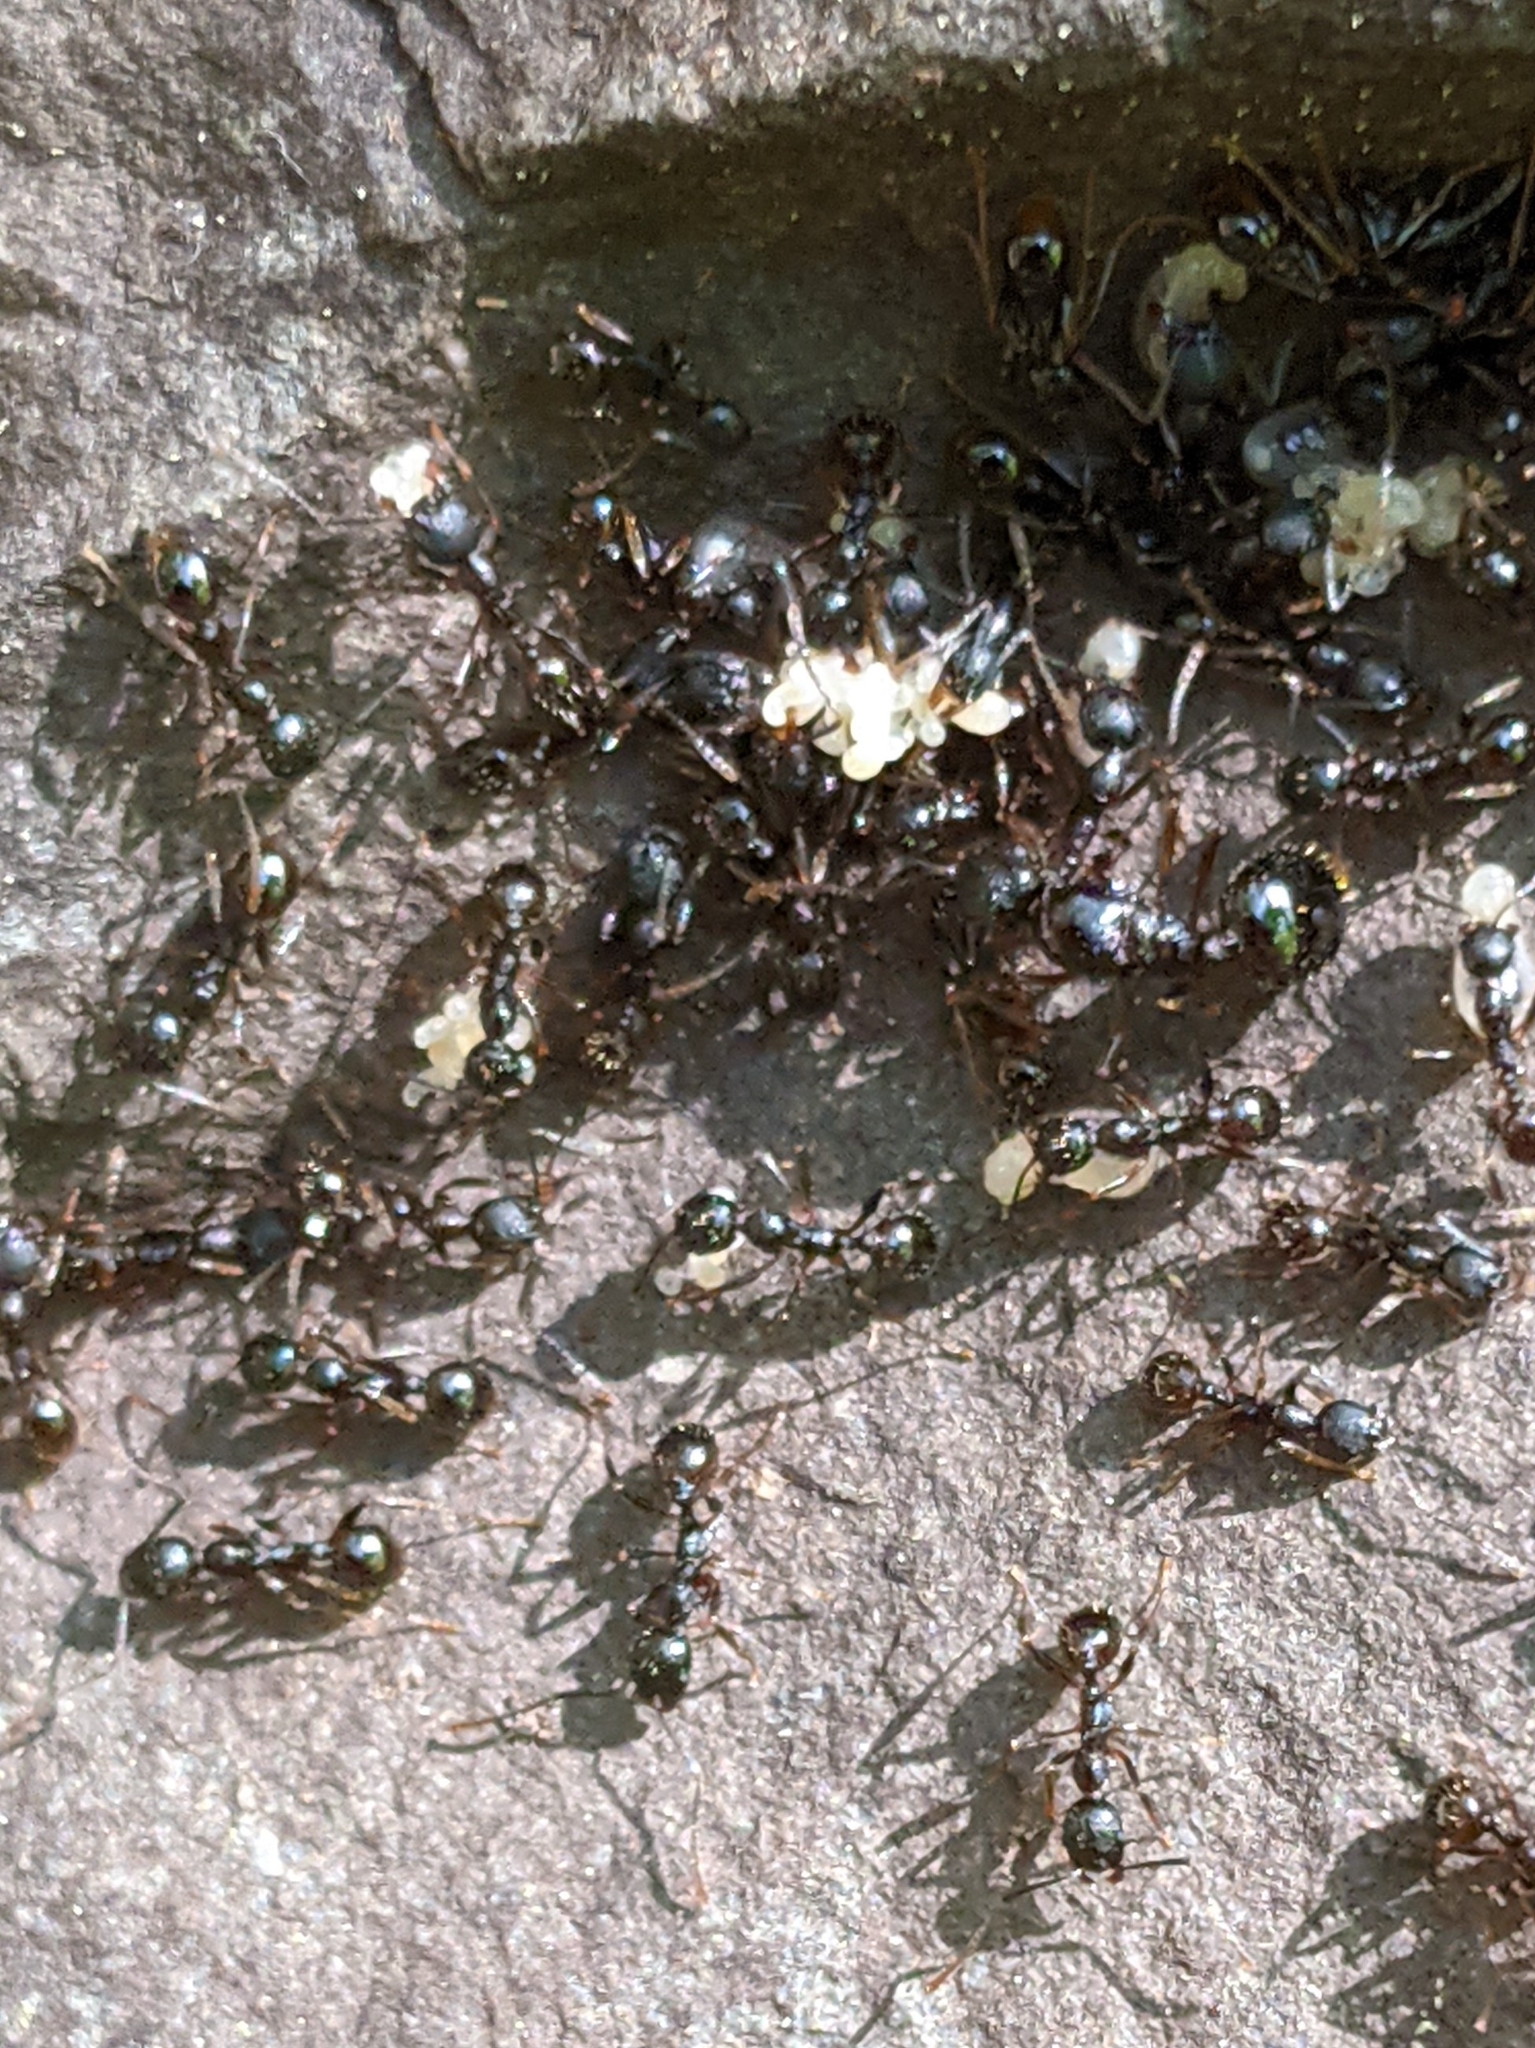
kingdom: Animalia
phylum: Arthropoda
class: Insecta
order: Hymenoptera
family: Formicidae
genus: Aphaenogaster
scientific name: Aphaenogaster picea
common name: Pitch-black collared ant
